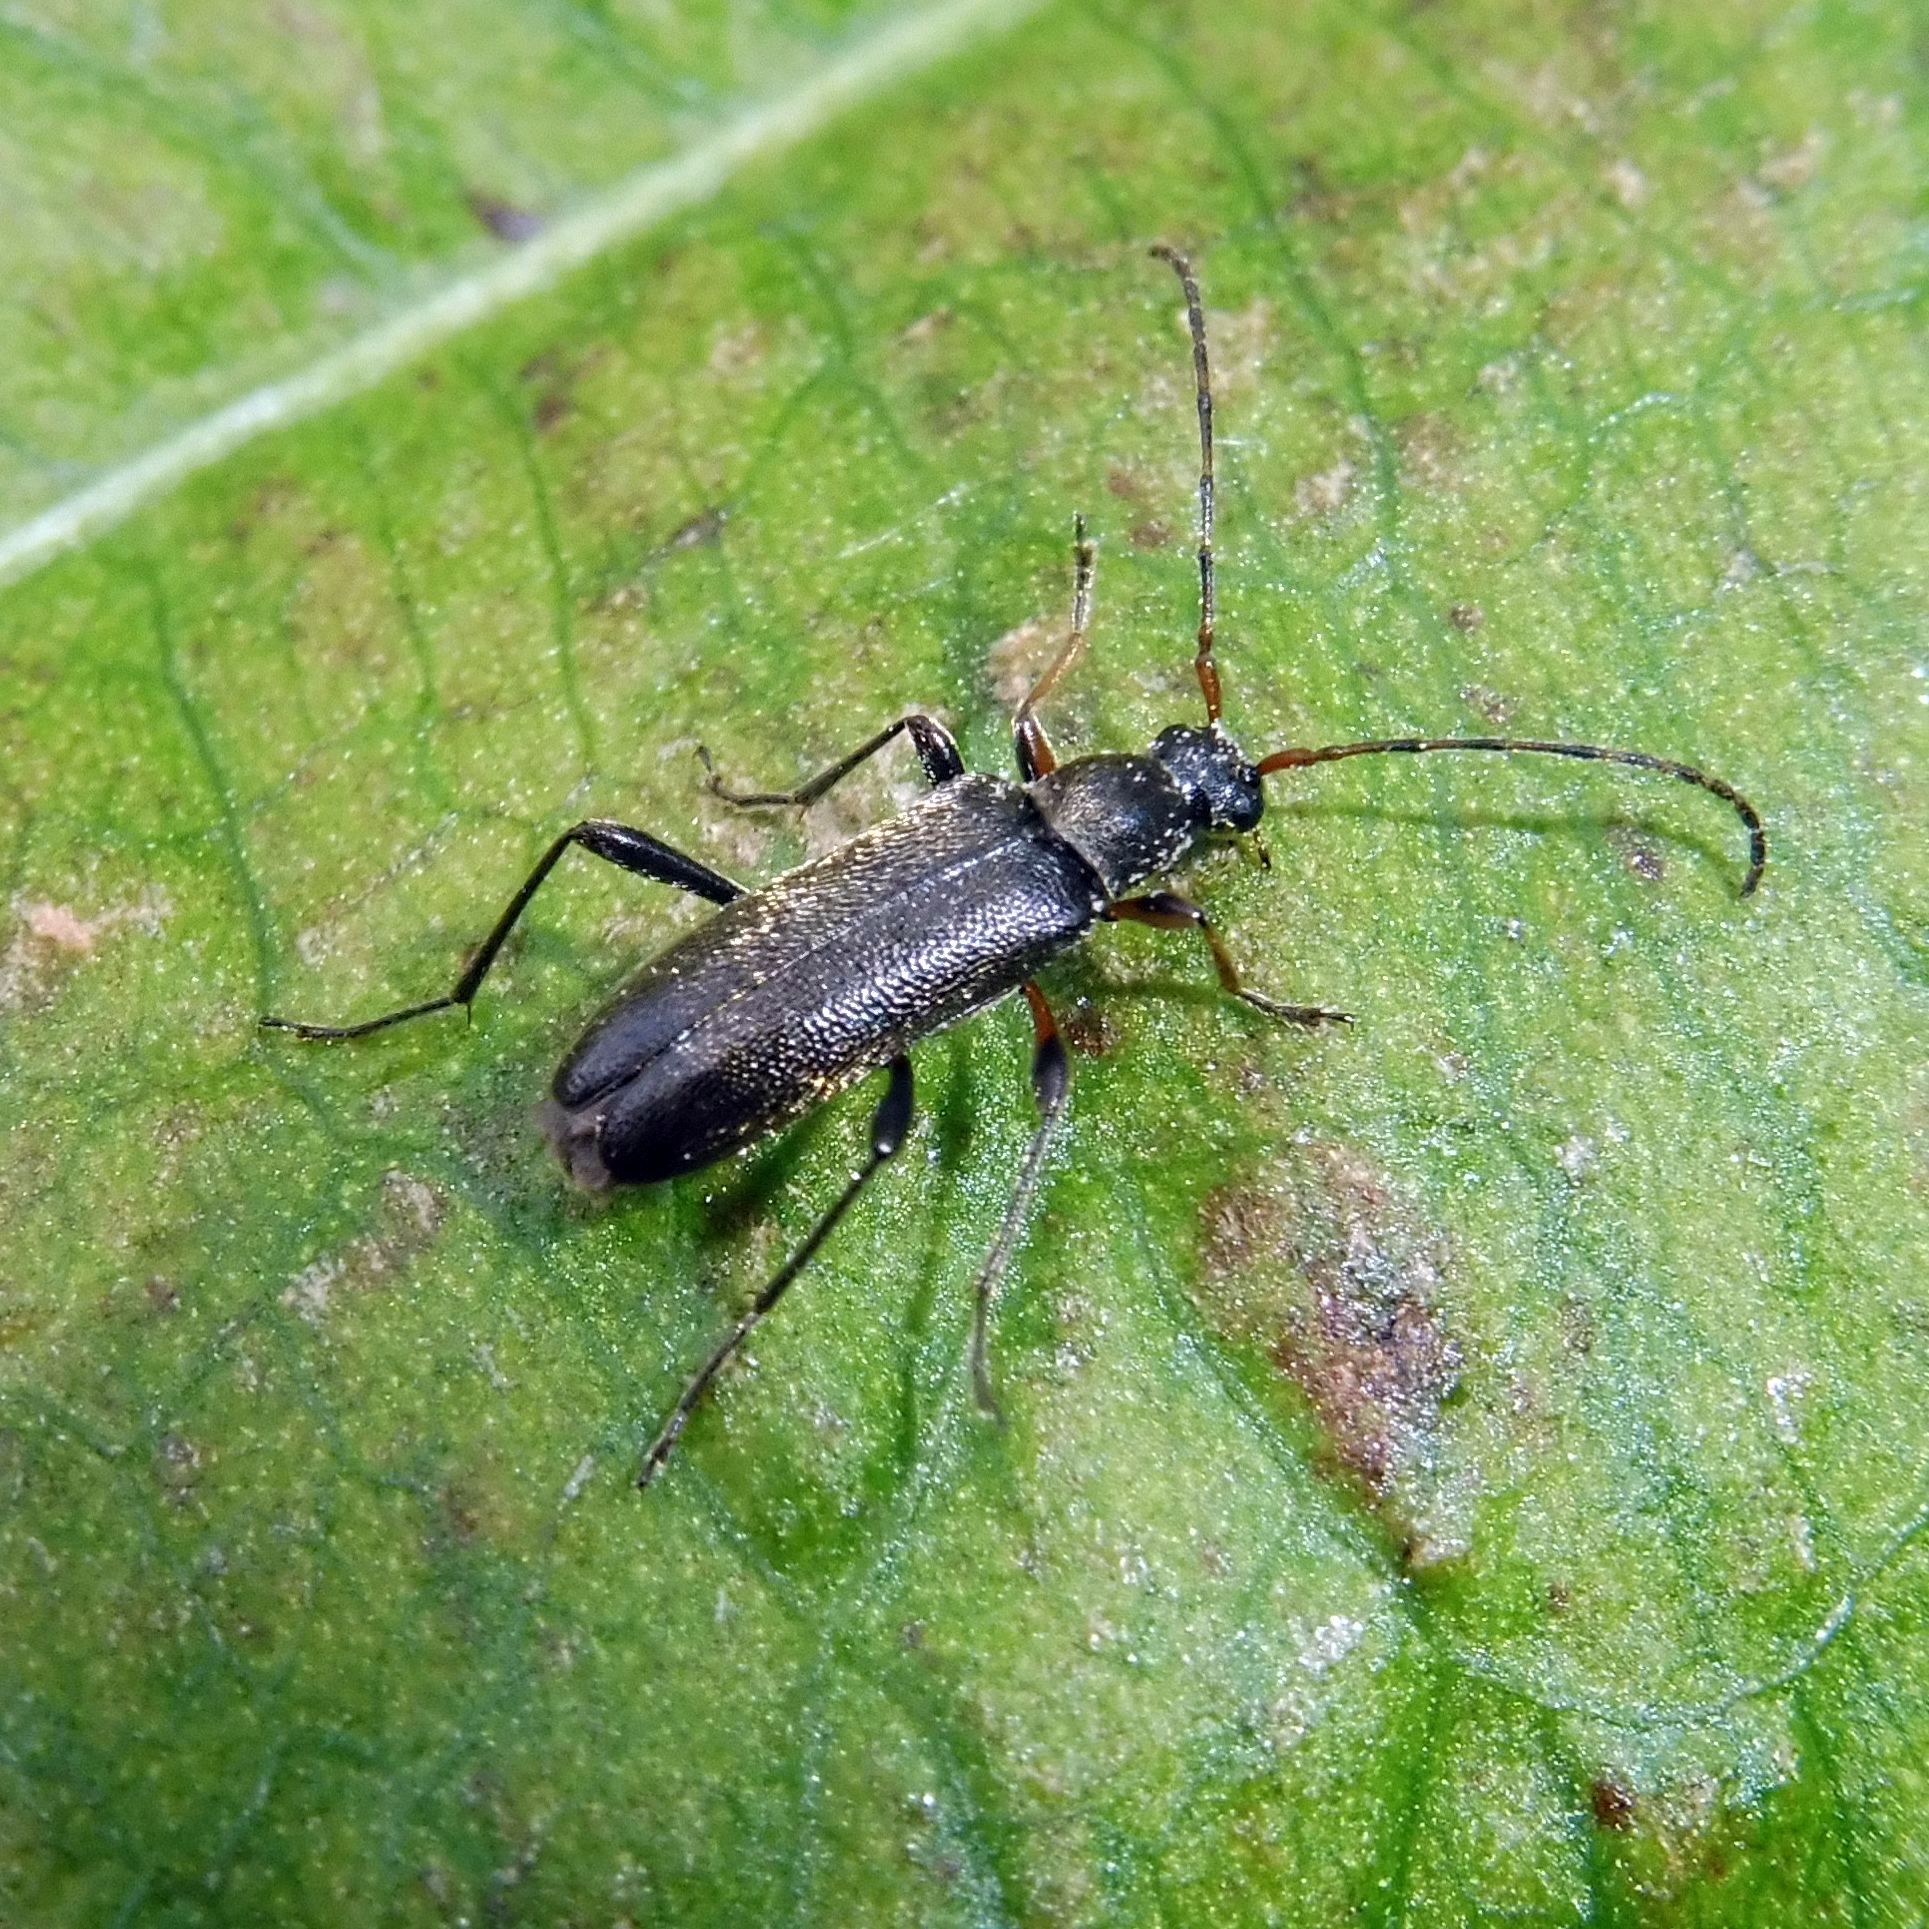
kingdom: Animalia
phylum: Arthropoda
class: Insecta
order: Coleoptera
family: Cerambycidae
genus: Grammoptera
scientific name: Grammoptera ruficornis
